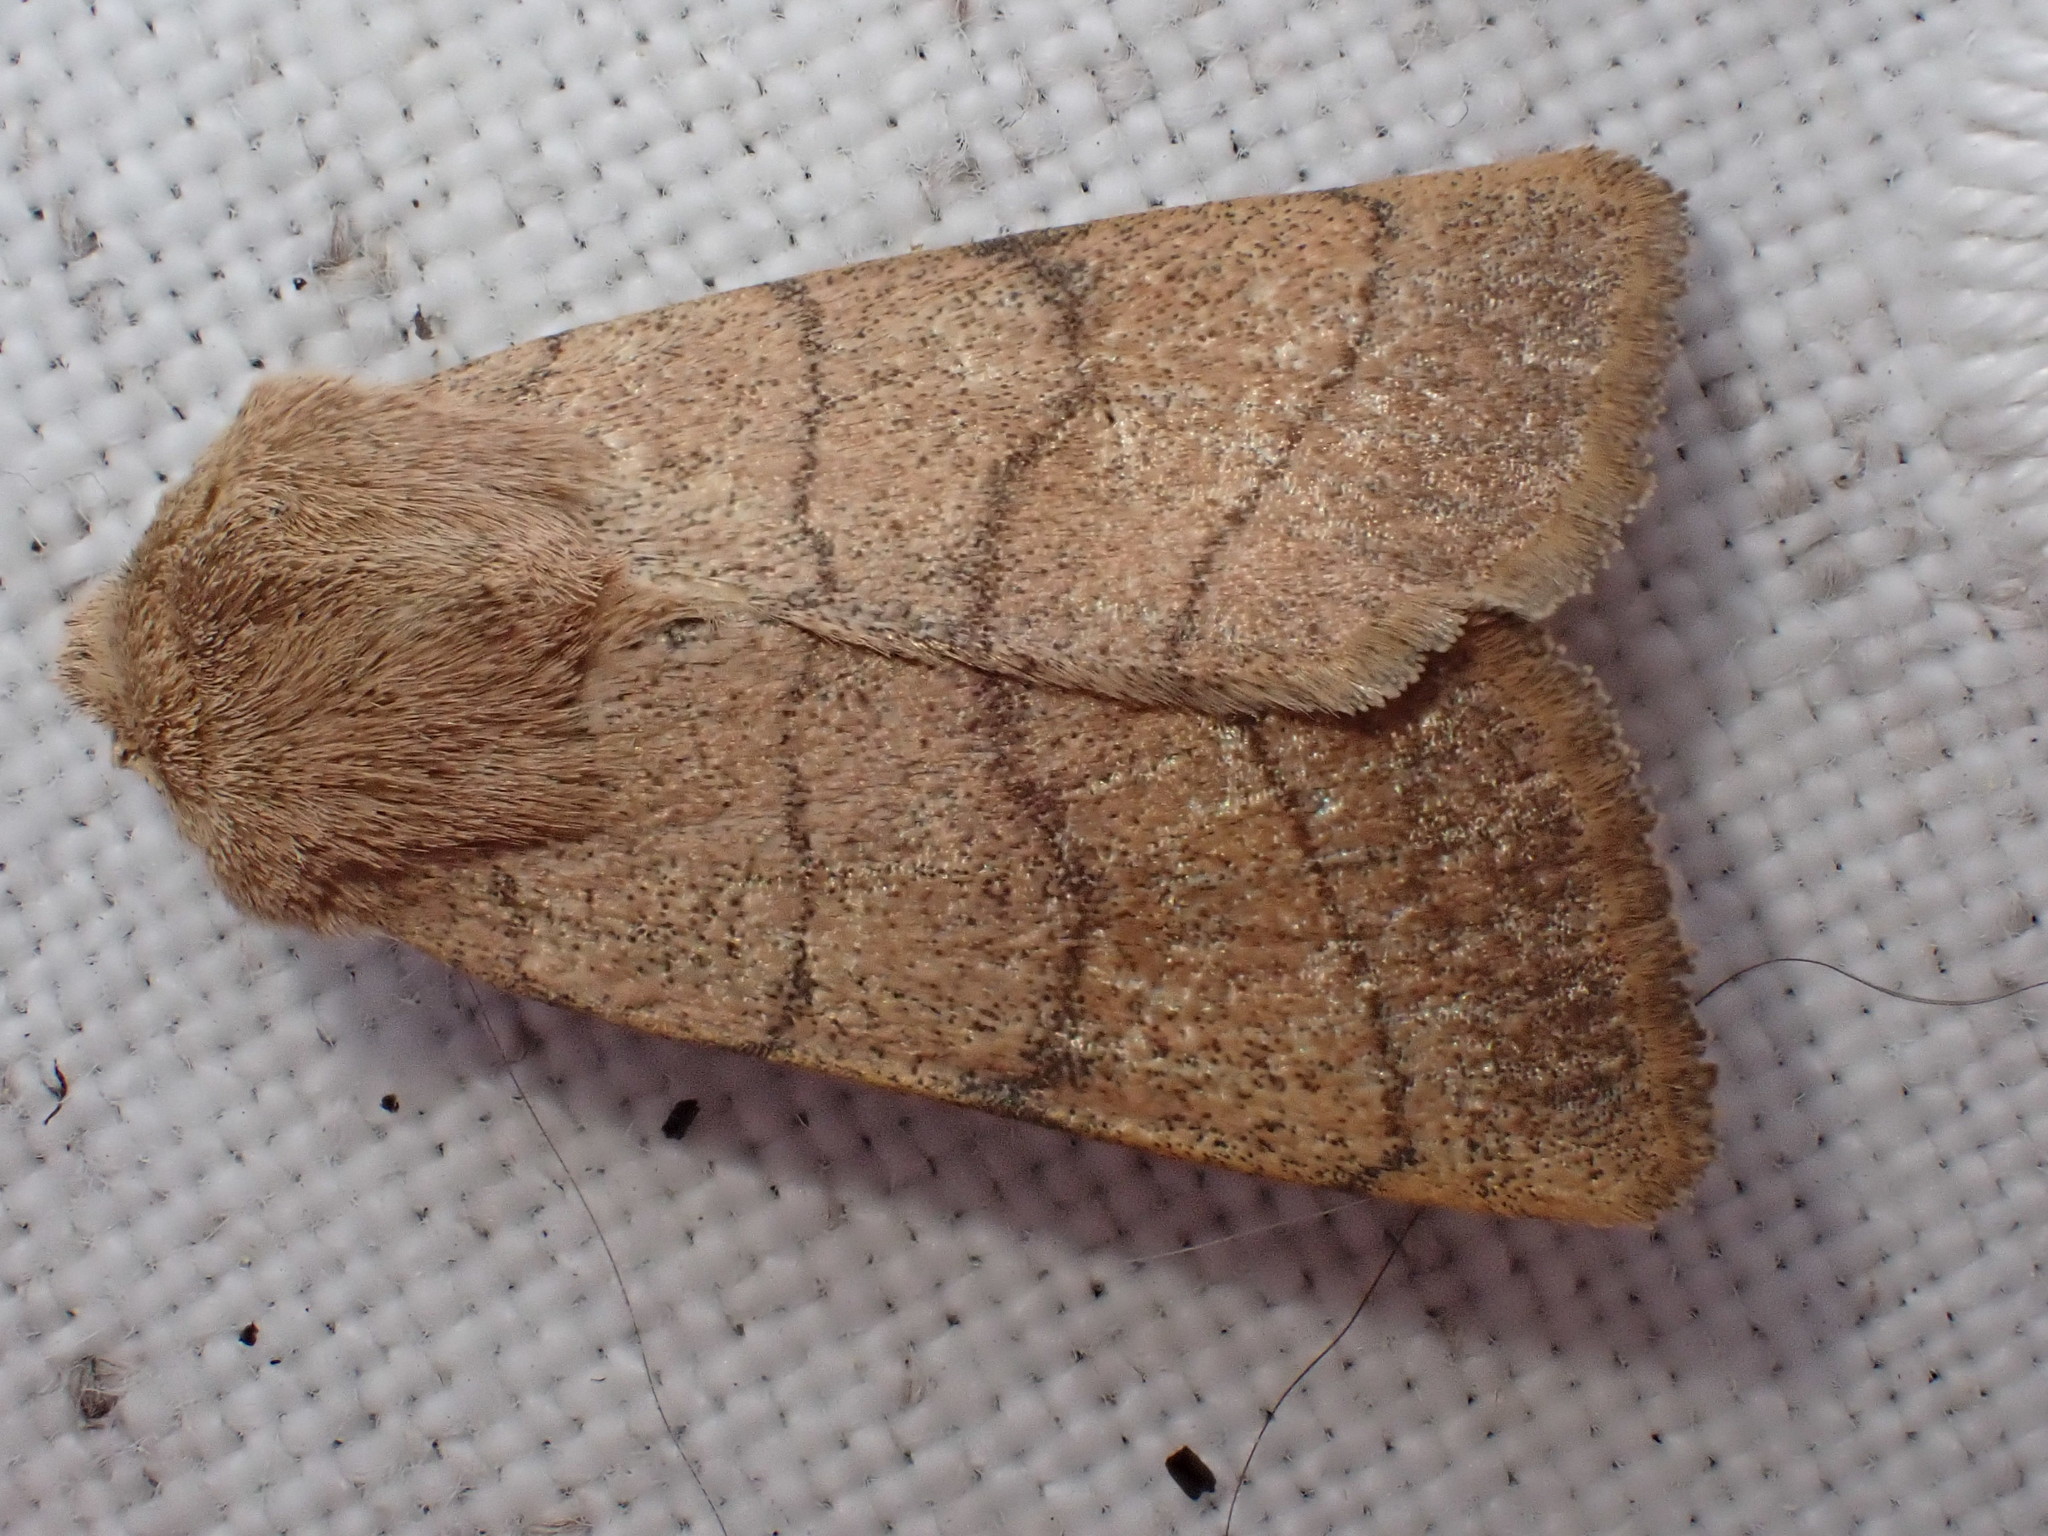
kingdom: Animalia
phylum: Arthropoda
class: Insecta
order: Lepidoptera
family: Noctuidae
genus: Charanyca
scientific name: Charanyca trigrammica
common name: Treble lines
